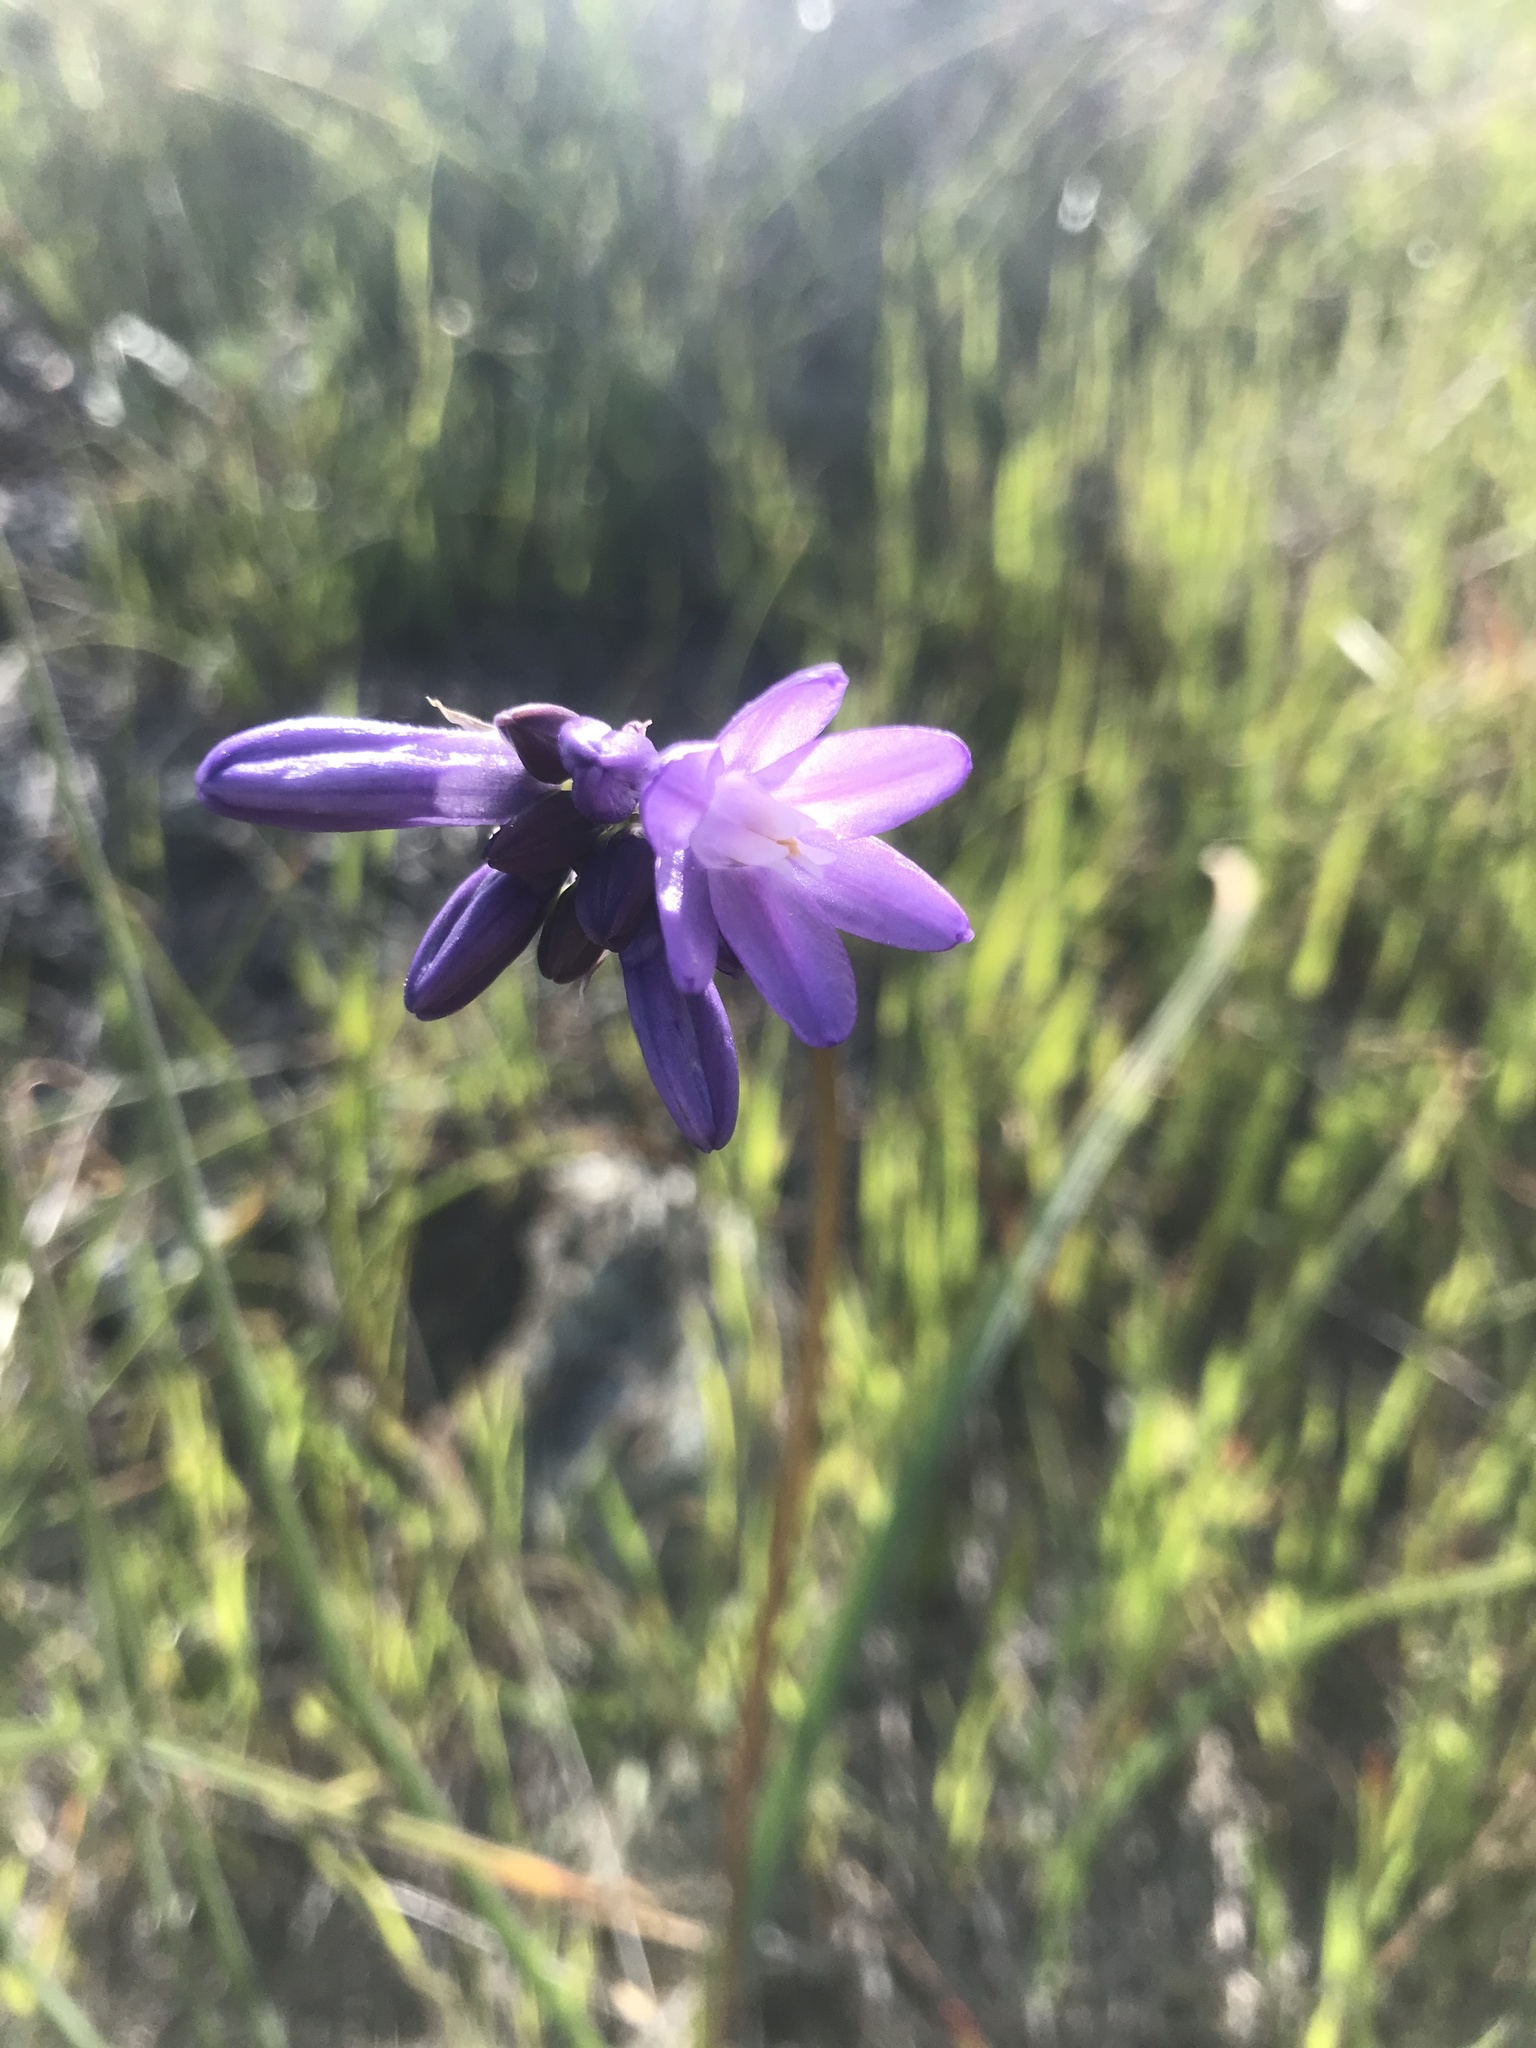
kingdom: Plantae
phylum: Tracheophyta
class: Liliopsida
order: Asparagales
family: Asparagaceae
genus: Dipterostemon
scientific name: Dipterostemon capitatus
